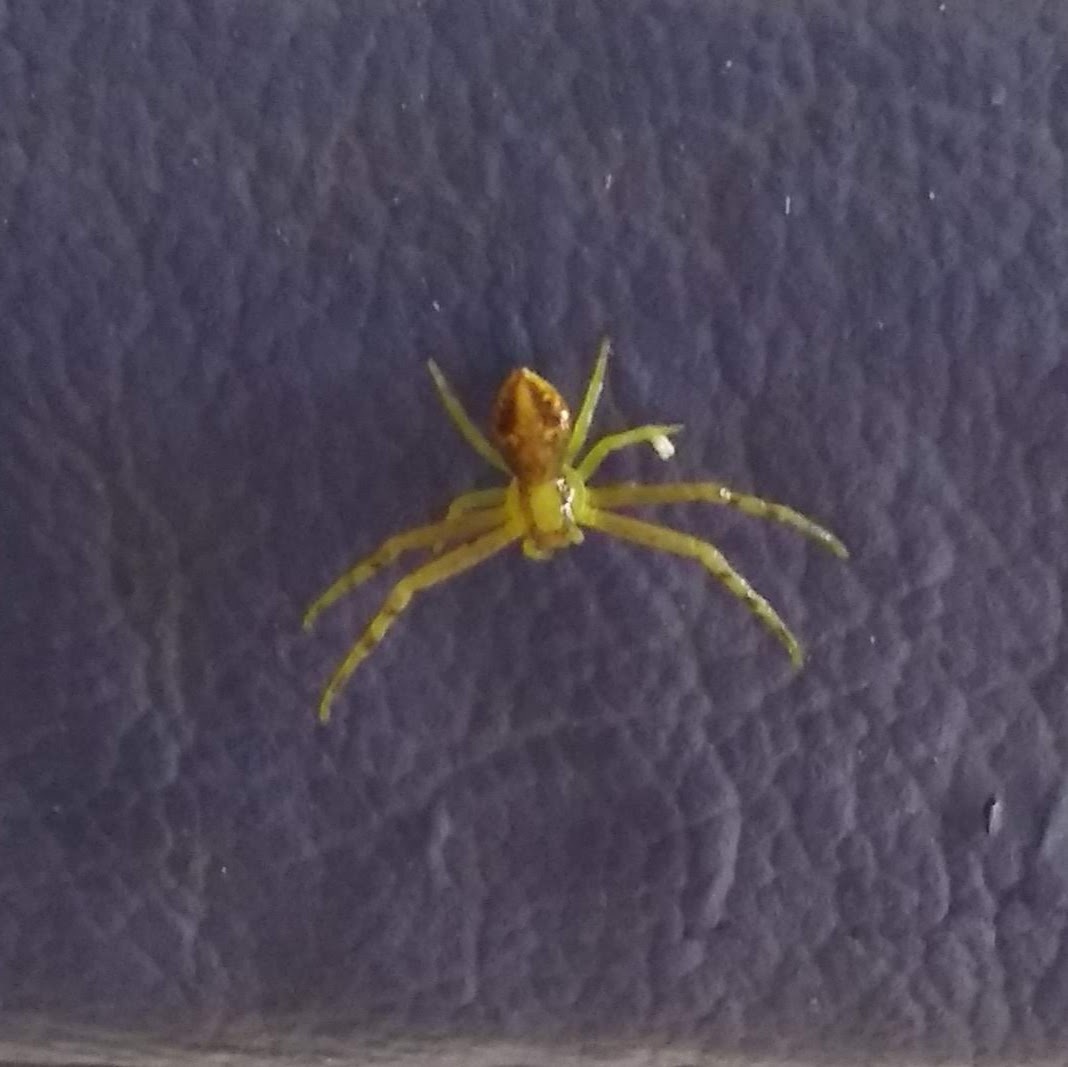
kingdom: Animalia
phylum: Arthropoda
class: Arachnida
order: Araneae
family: Thomisidae
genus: Misumenops
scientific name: Misumenops
